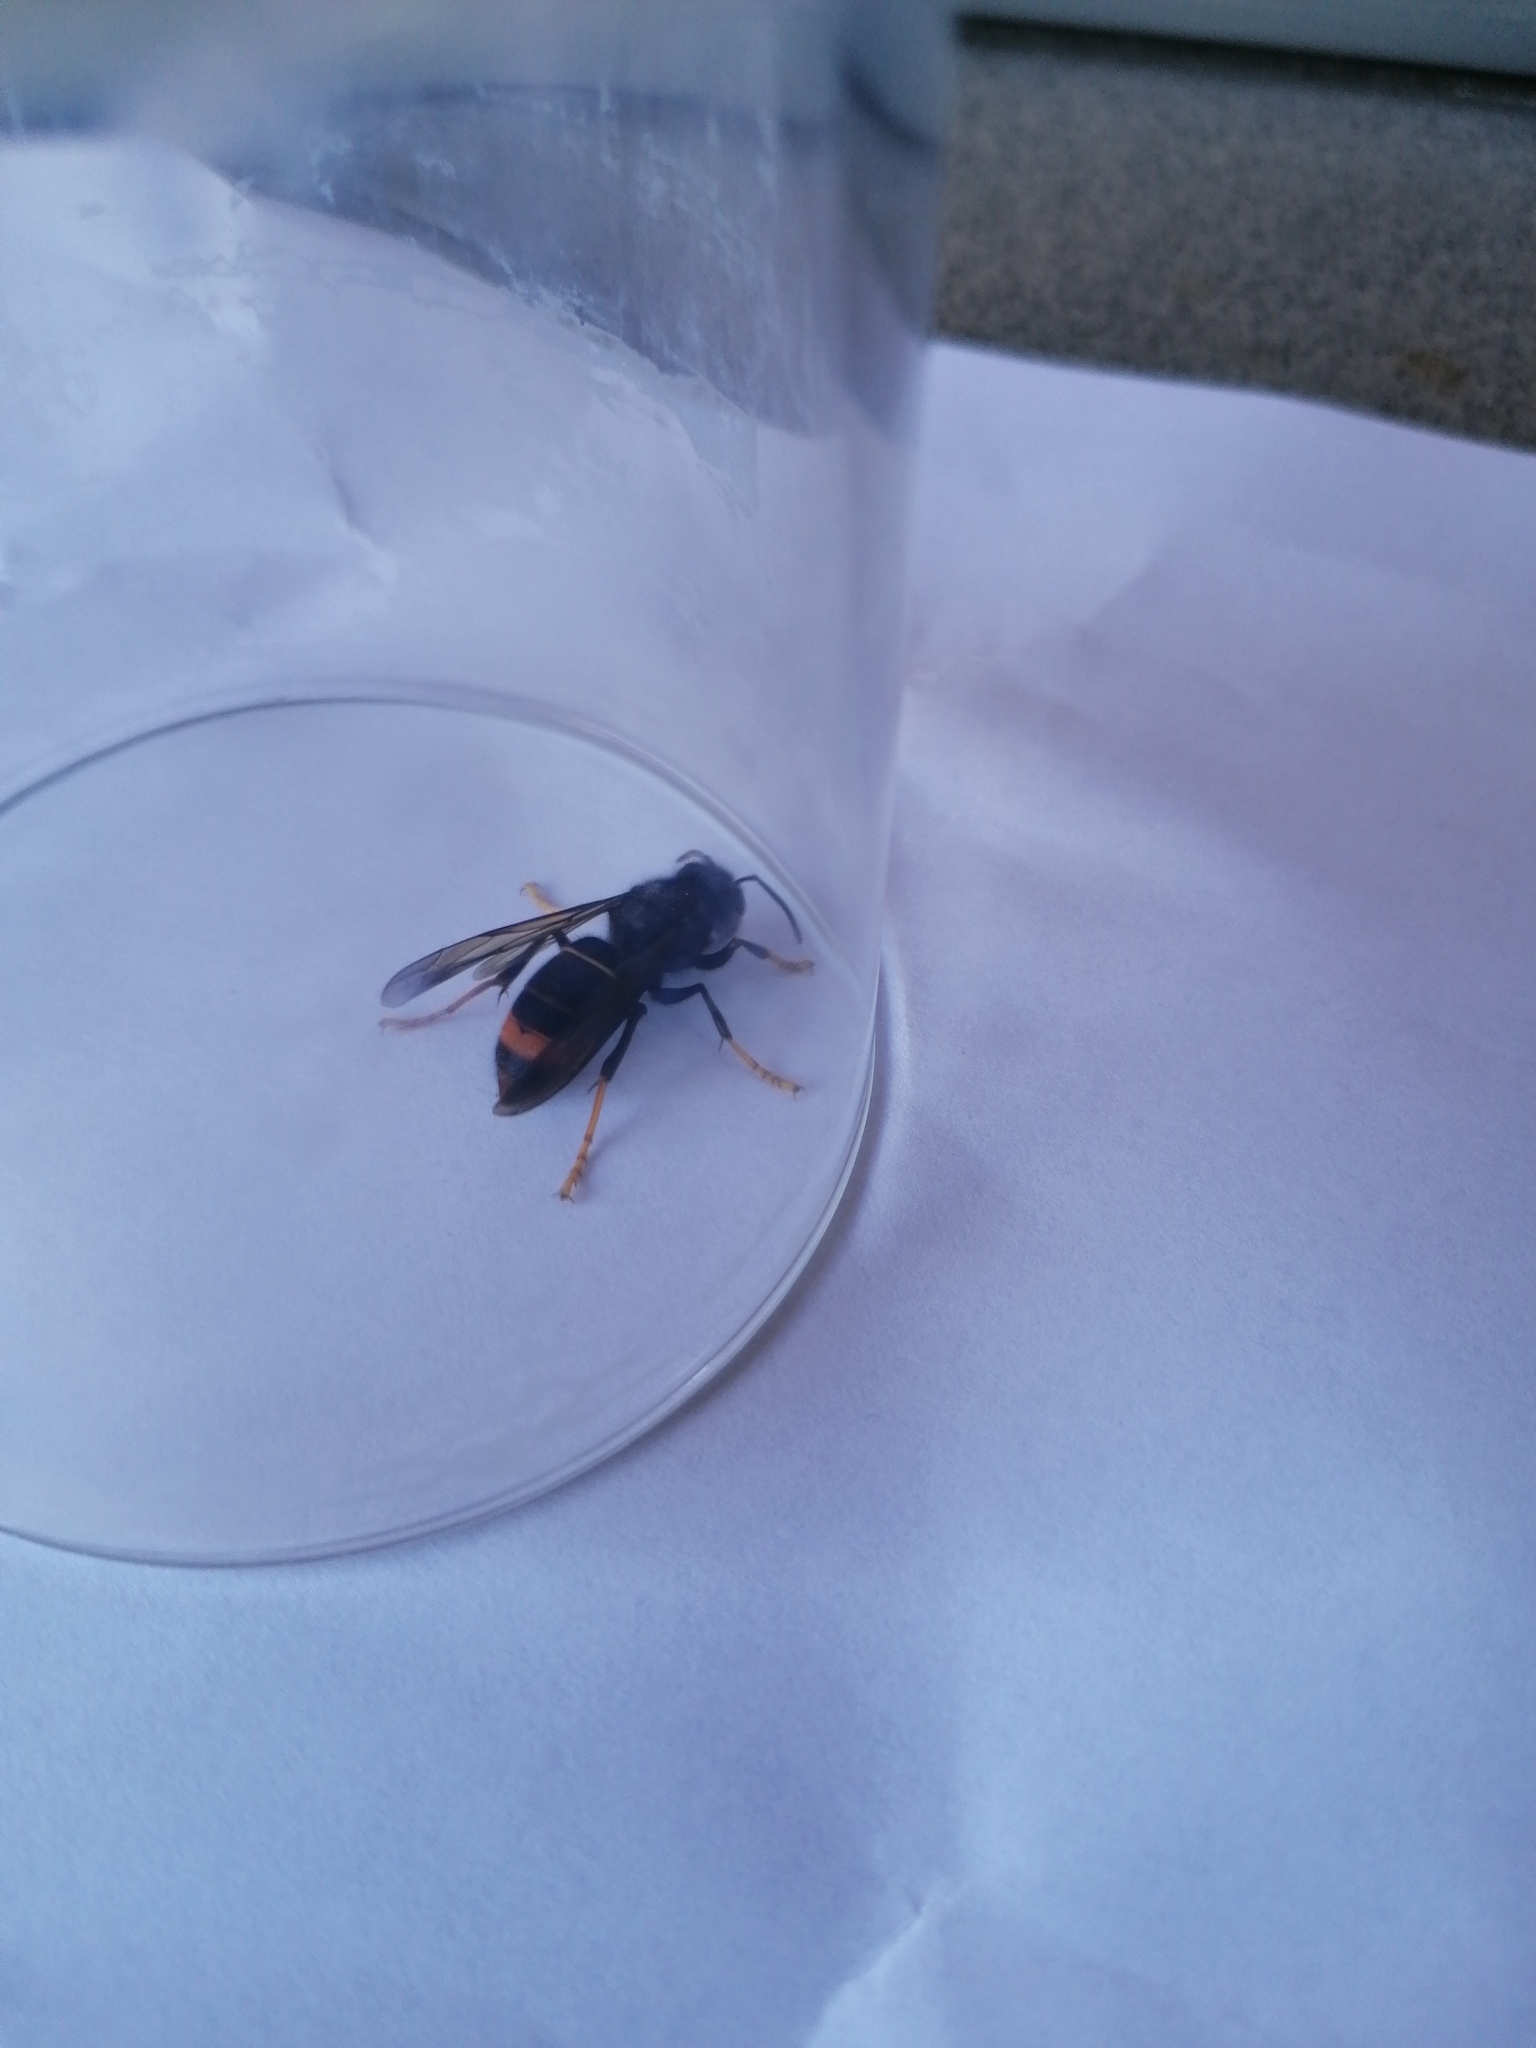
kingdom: Animalia
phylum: Arthropoda
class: Insecta
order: Hymenoptera
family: Vespidae
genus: Vespa
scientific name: Vespa velutina
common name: Asian hornet
